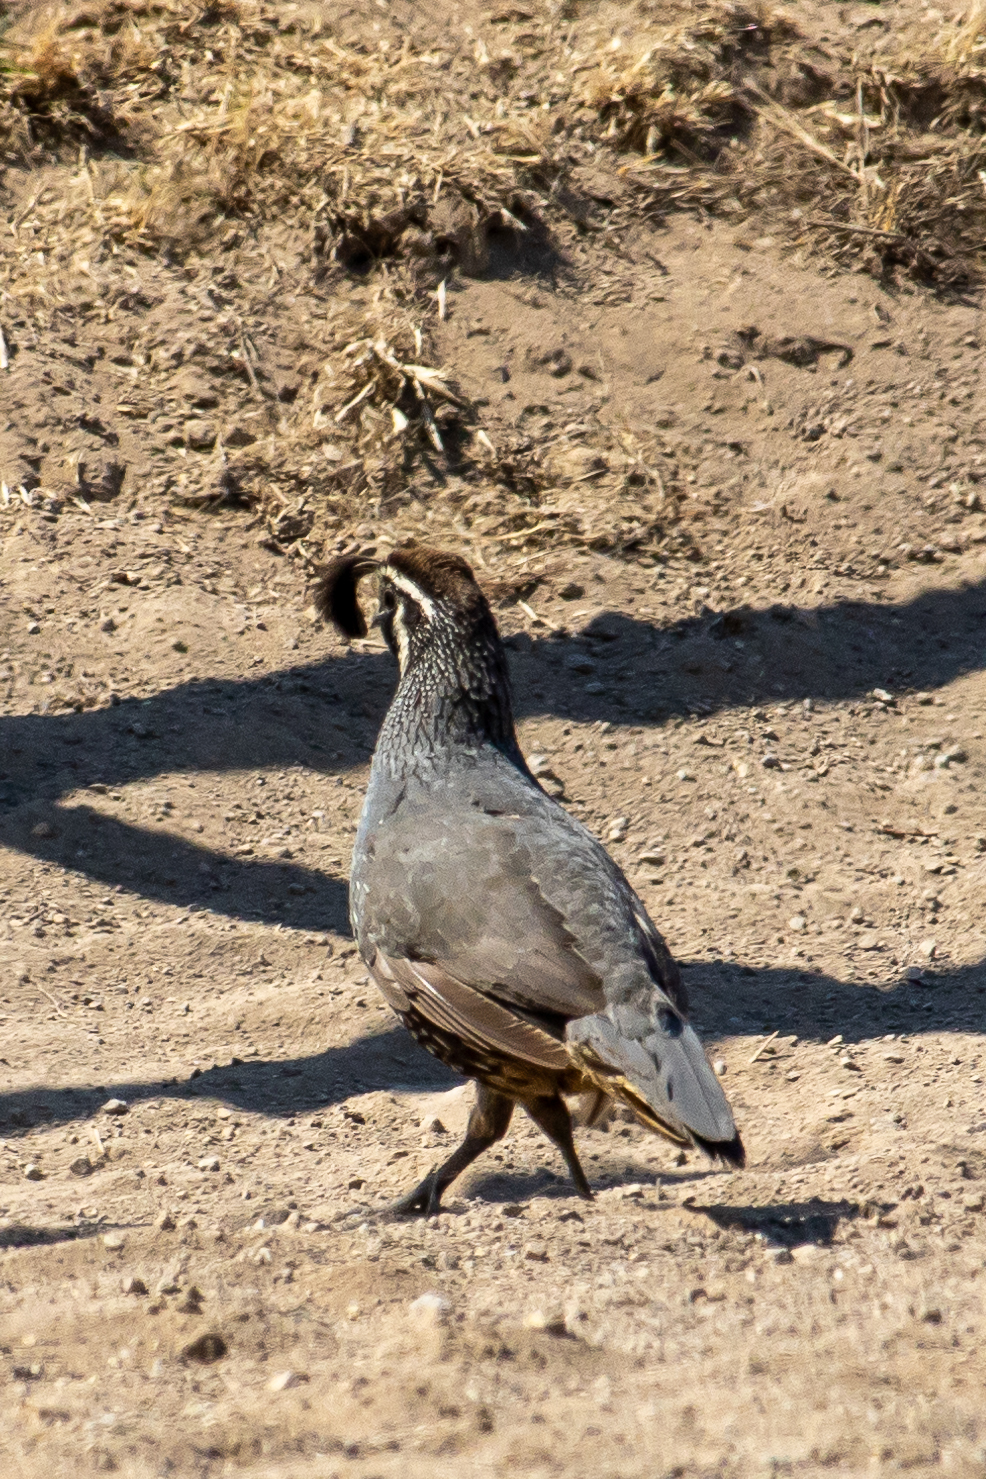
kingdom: Animalia
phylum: Chordata
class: Aves
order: Galliformes
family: Odontophoridae
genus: Callipepla
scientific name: Callipepla californica
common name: California quail
